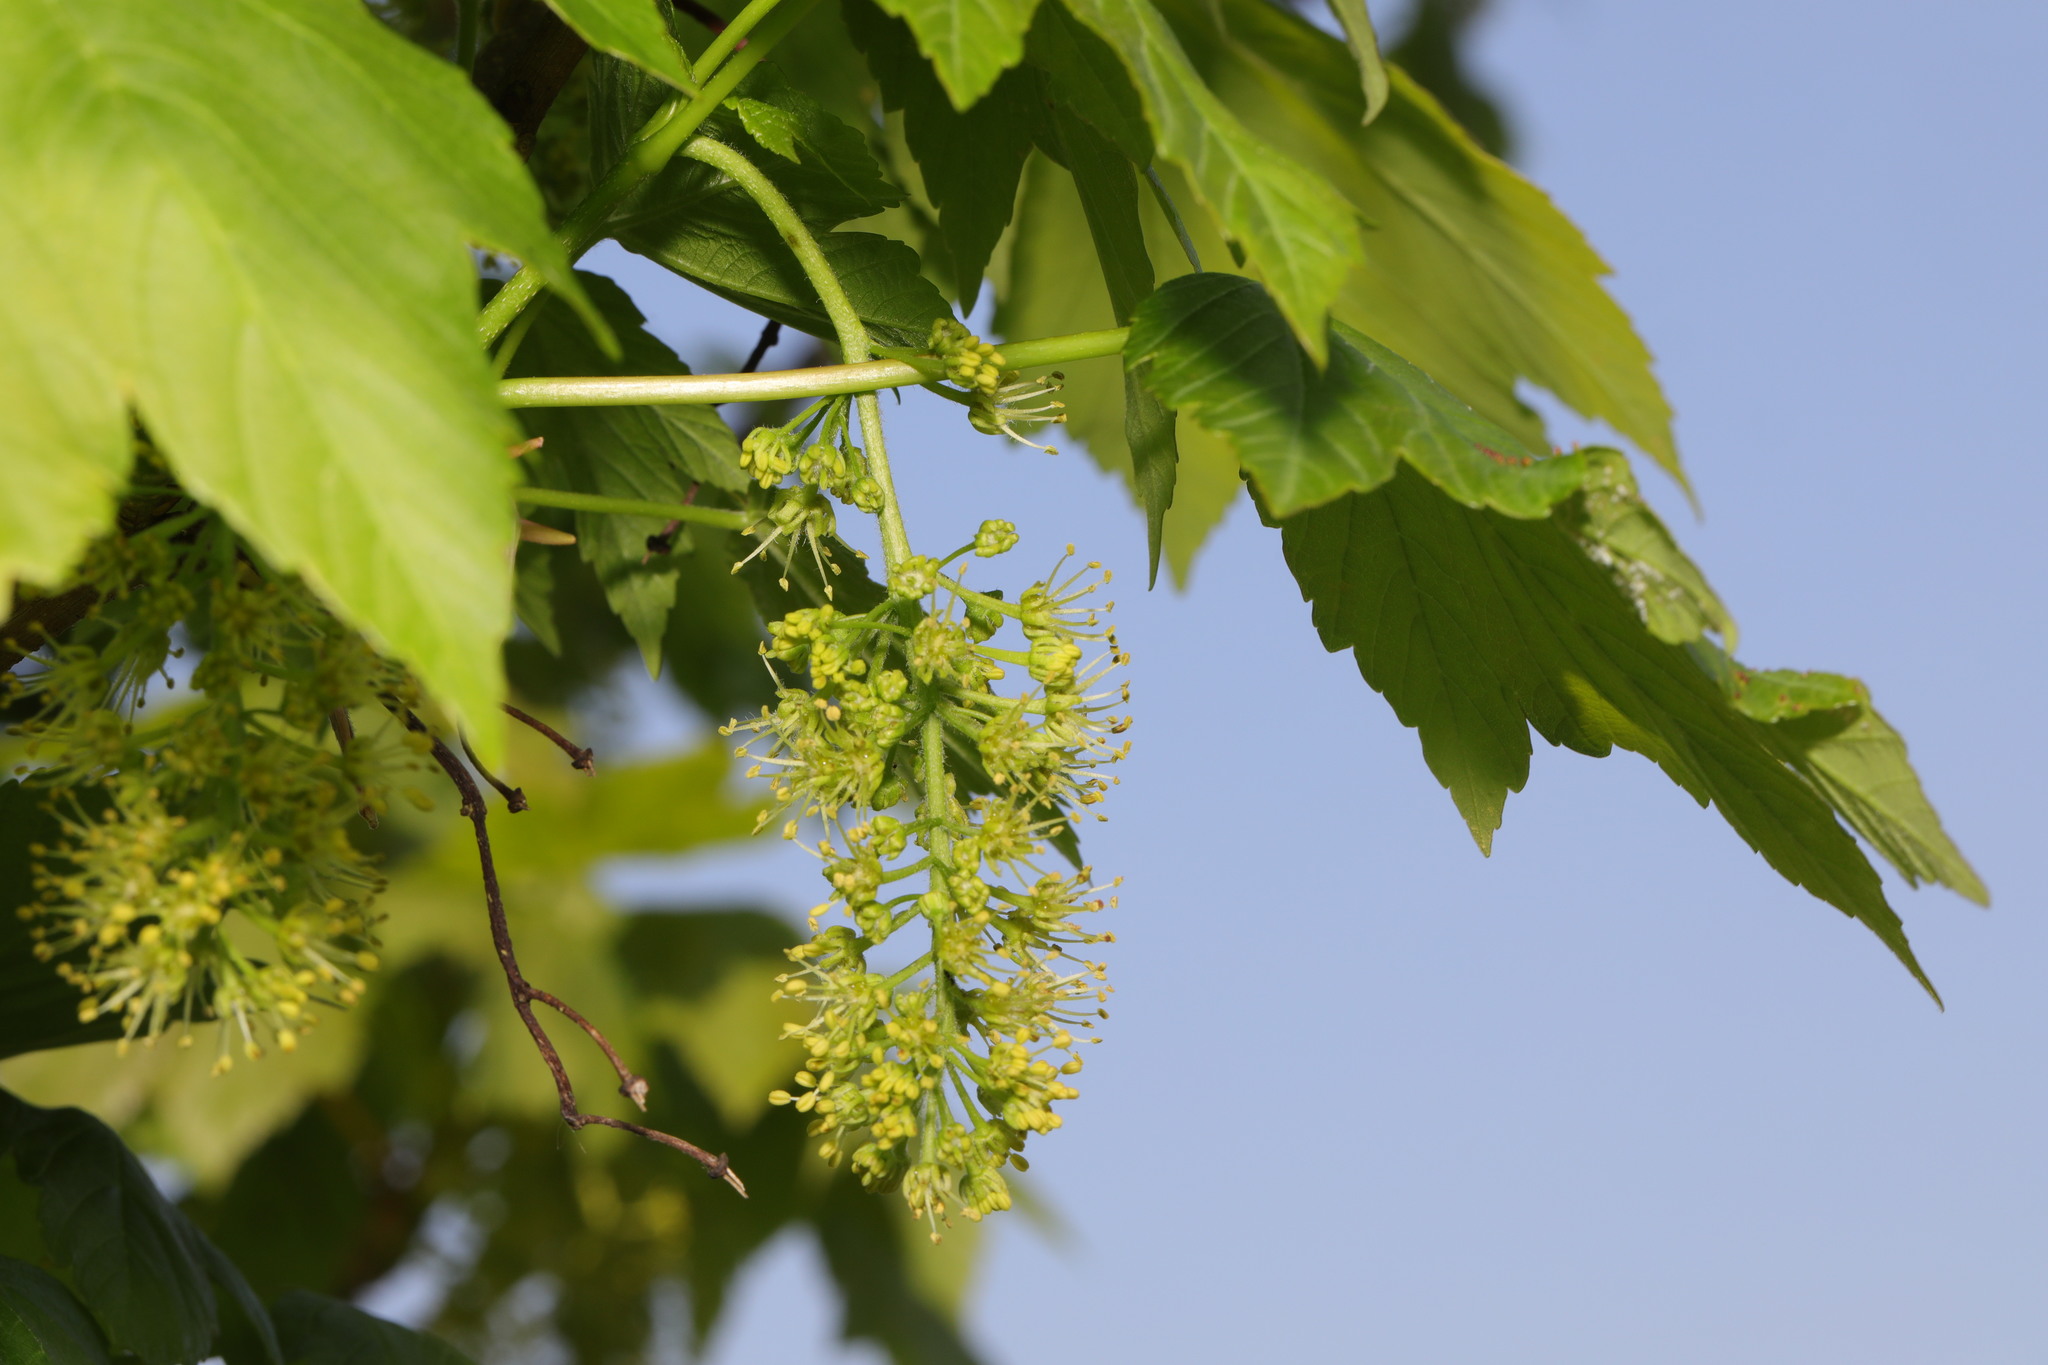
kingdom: Plantae
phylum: Tracheophyta
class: Magnoliopsida
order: Sapindales
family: Sapindaceae
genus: Acer
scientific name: Acer pseudoplatanus
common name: Sycamore
